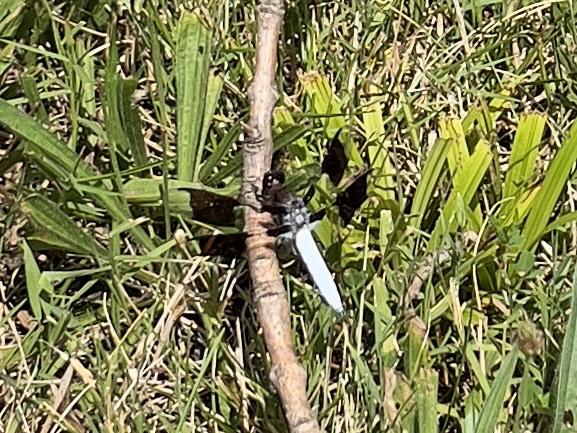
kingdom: Animalia
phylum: Arthropoda
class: Insecta
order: Odonata
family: Libellulidae
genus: Plathemis
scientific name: Plathemis lydia
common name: Common whitetail
